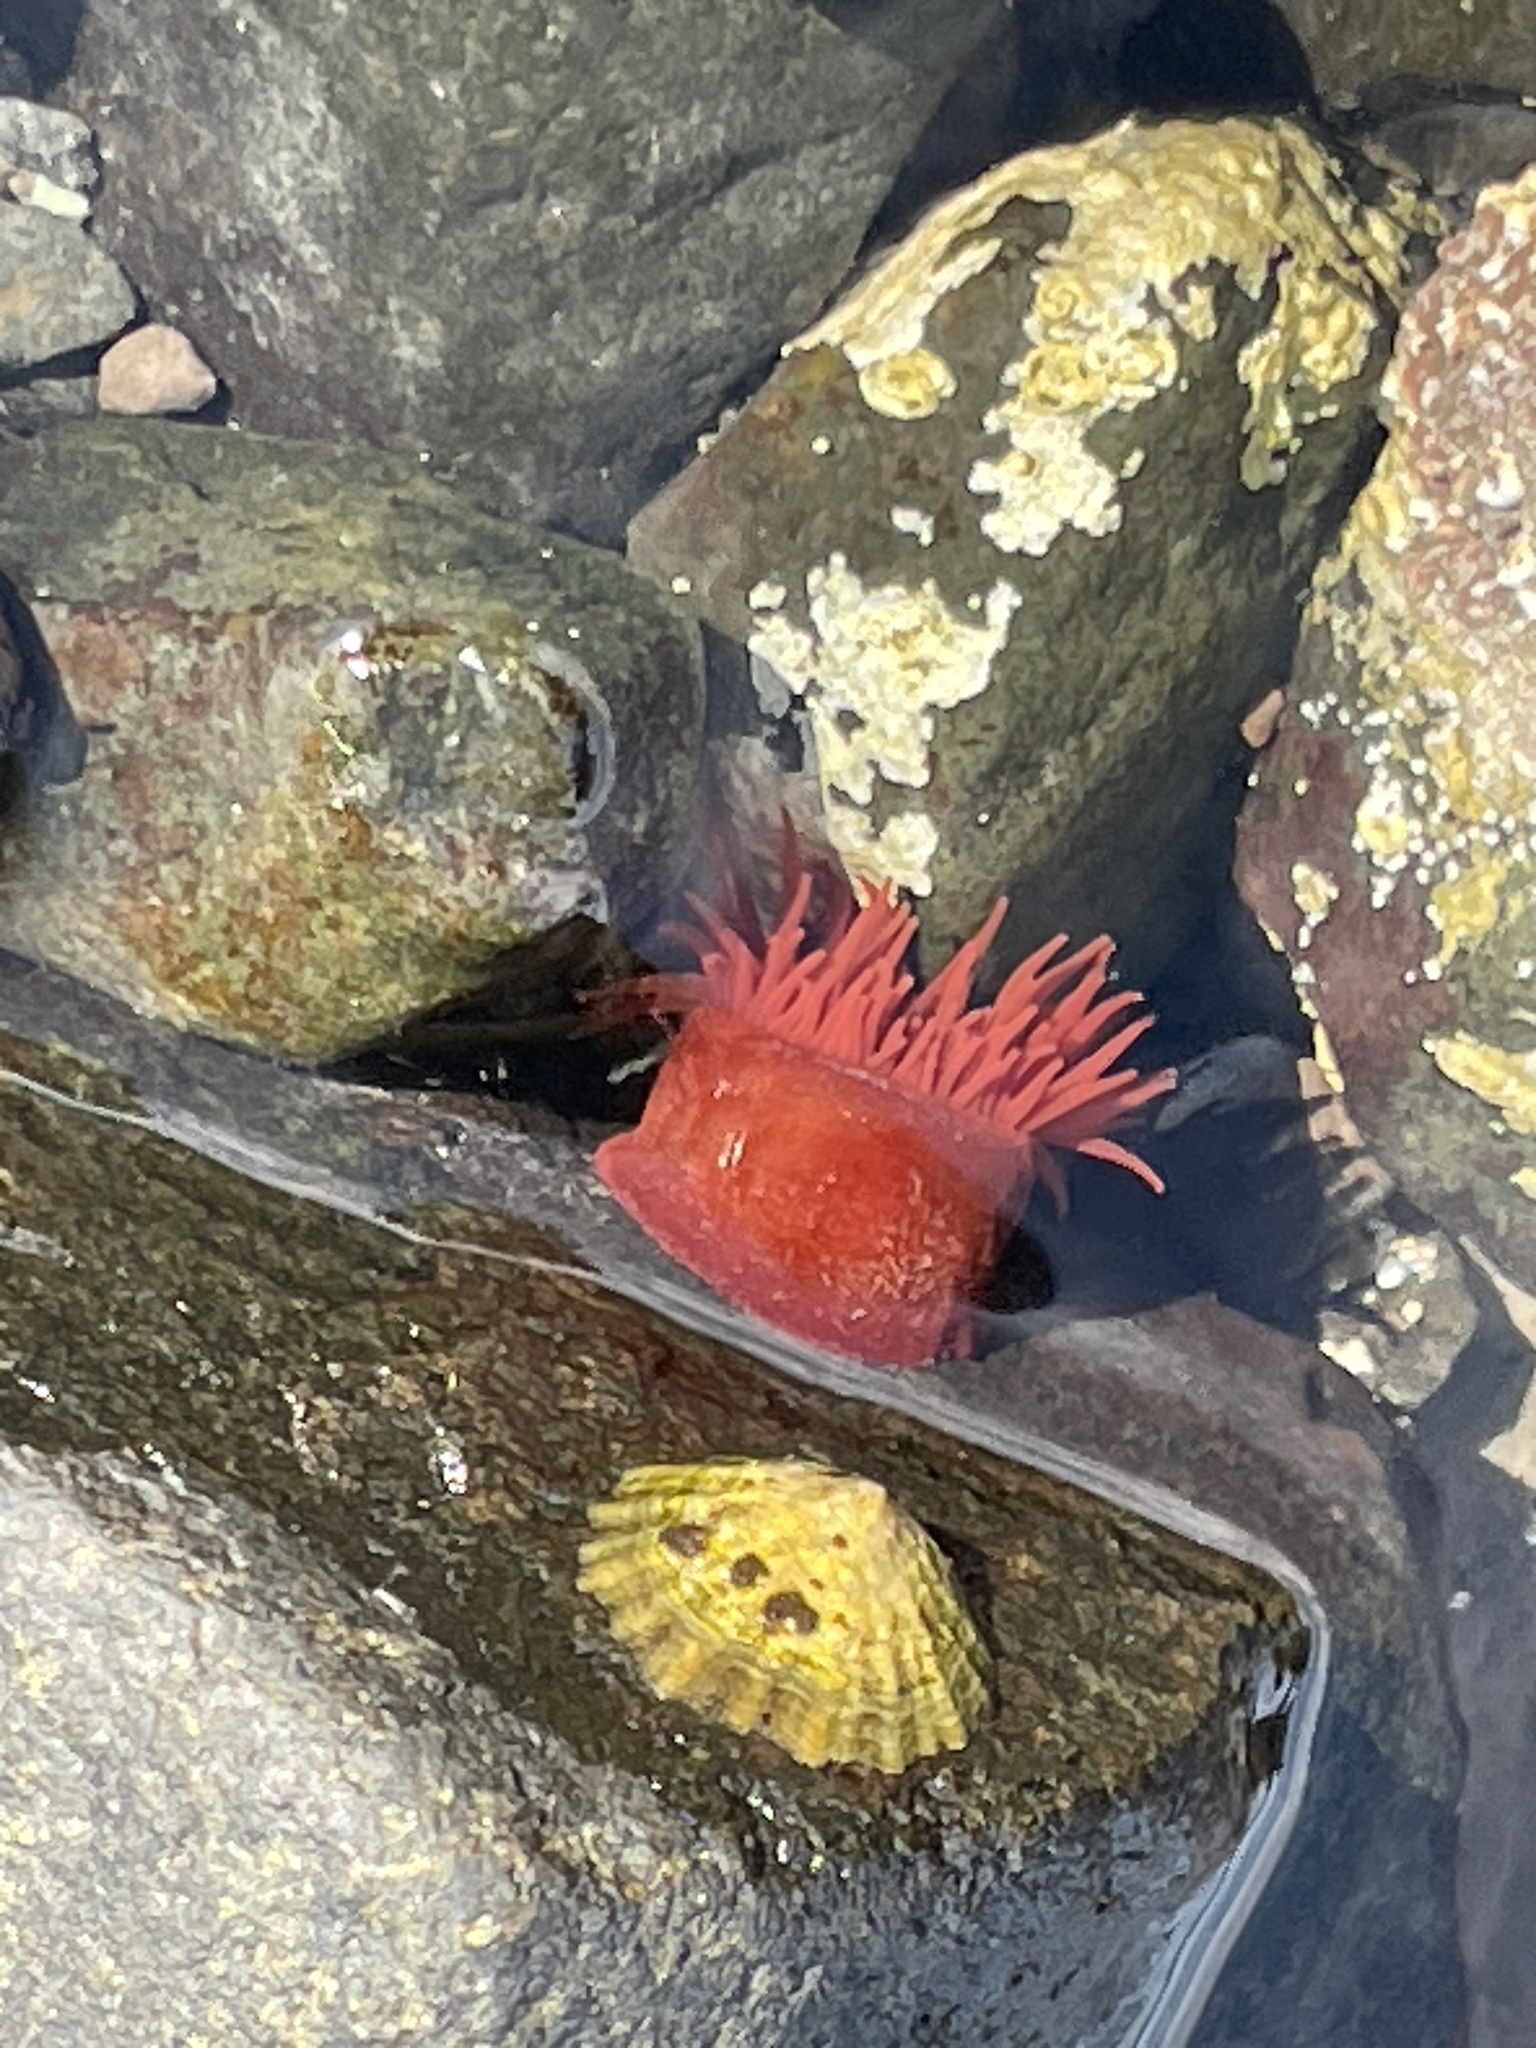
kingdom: Animalia
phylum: Cnidaria
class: Anthozoa
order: Actiniaria
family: Actiniidae
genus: Actinia
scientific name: Actinia equina
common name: Beadlet anemone
